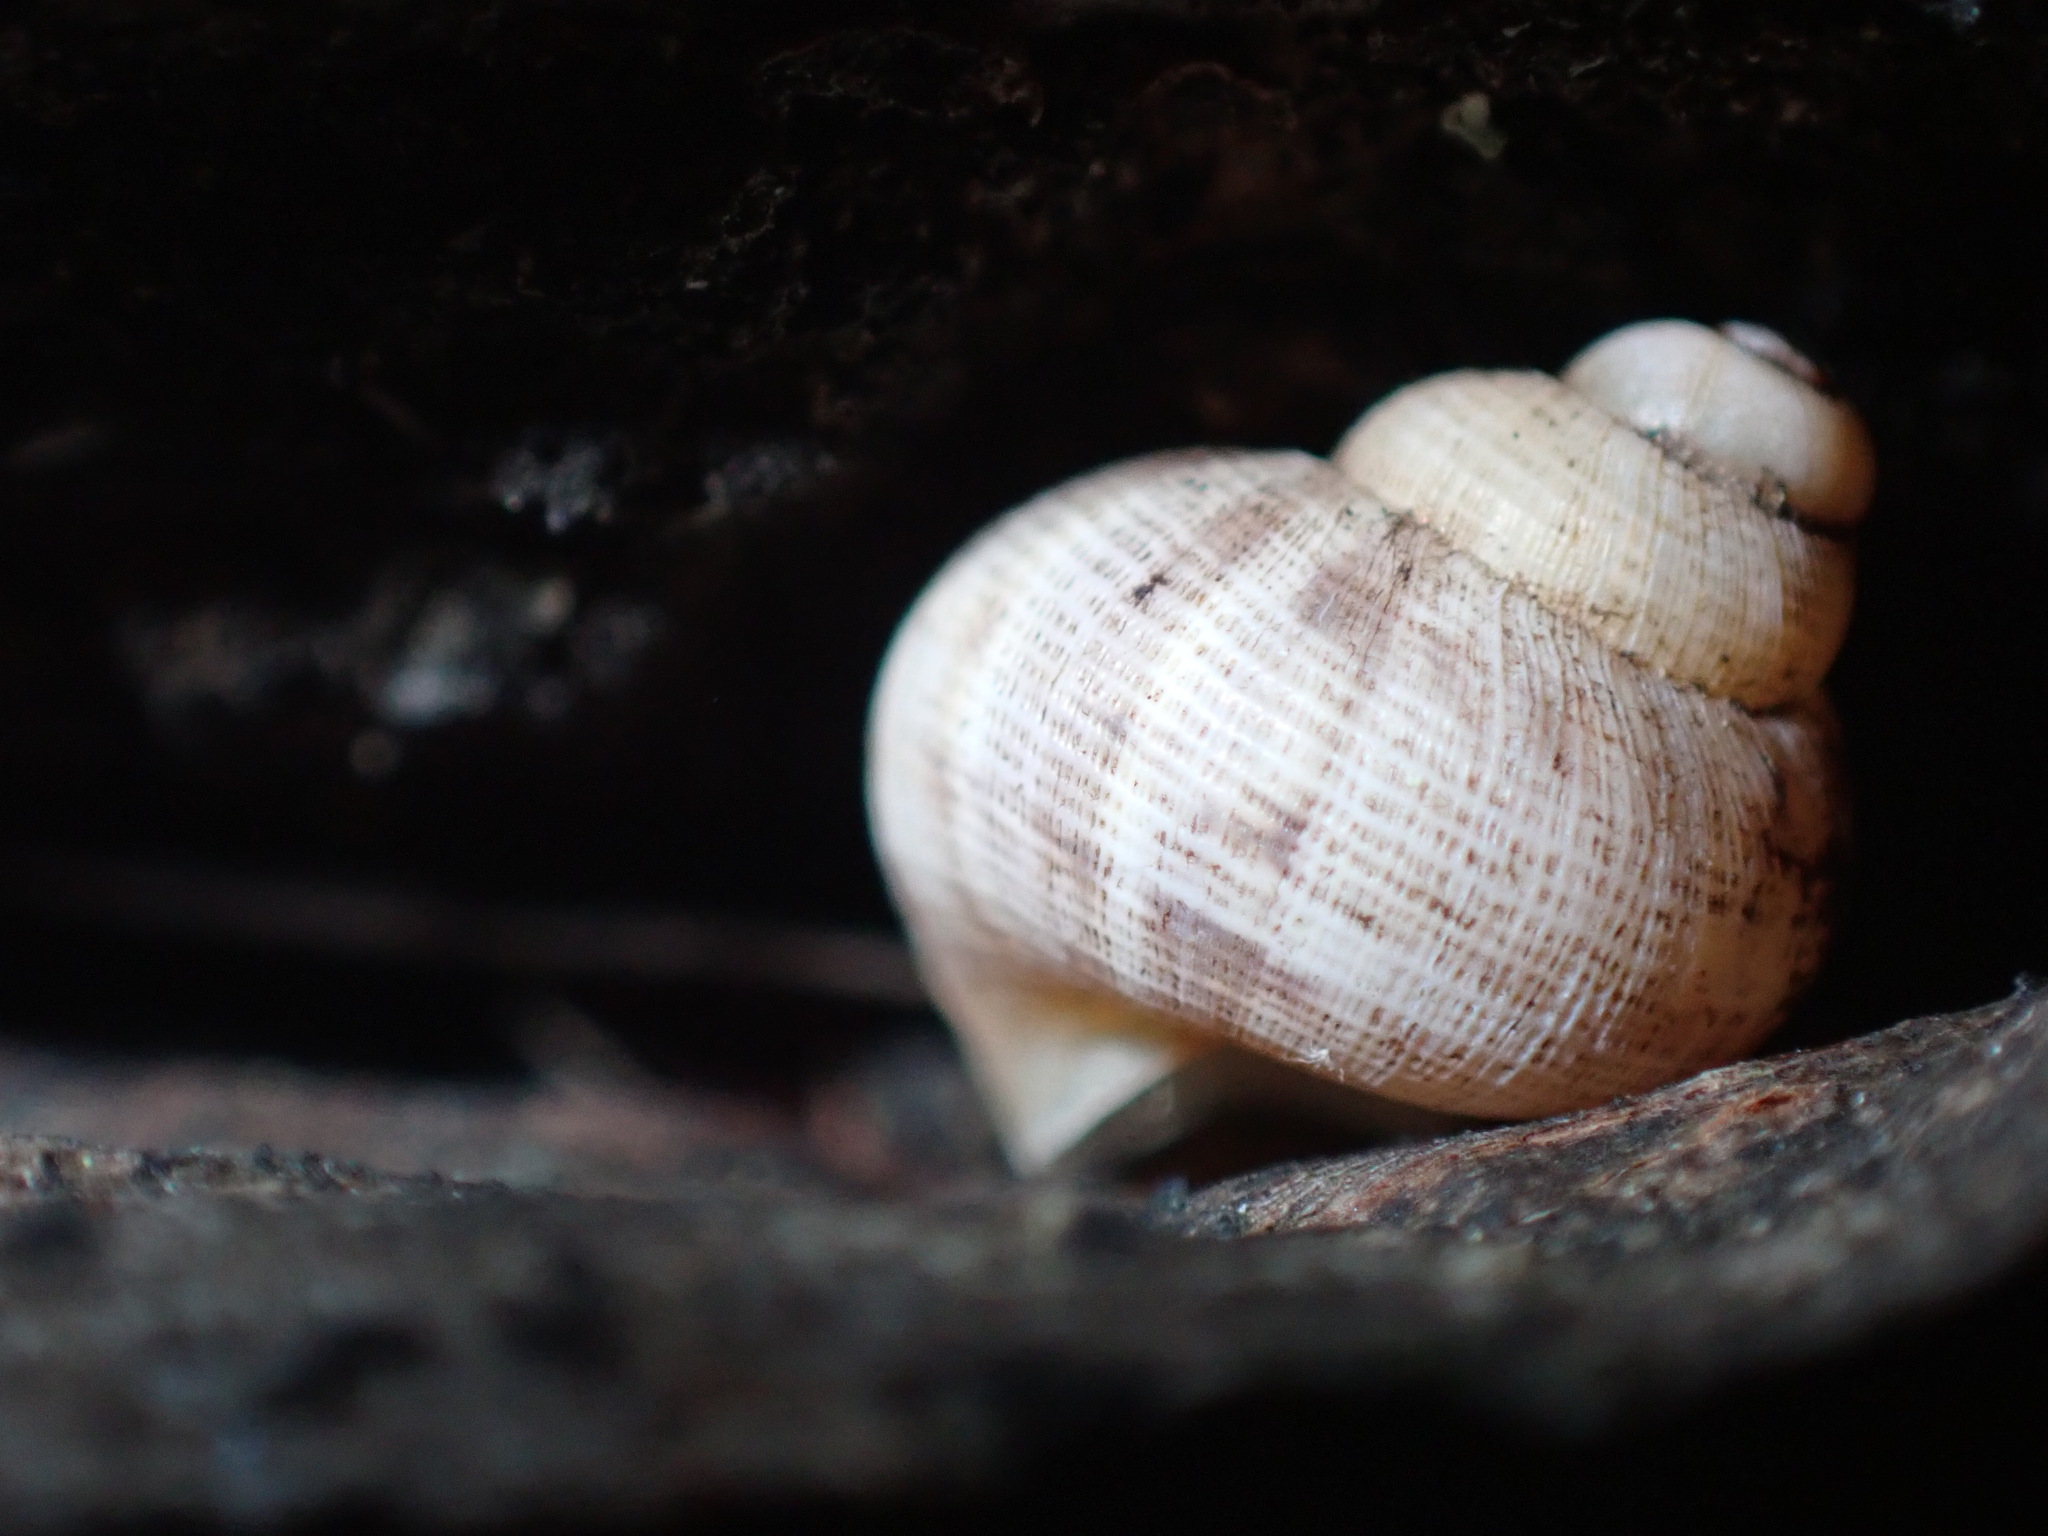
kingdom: Animalia
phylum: Mollusca
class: Gastropoda
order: Littorinimorpha
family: Pomatiidae
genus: Pomatias
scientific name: Pomatias elegans
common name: Red-mouthed snail
